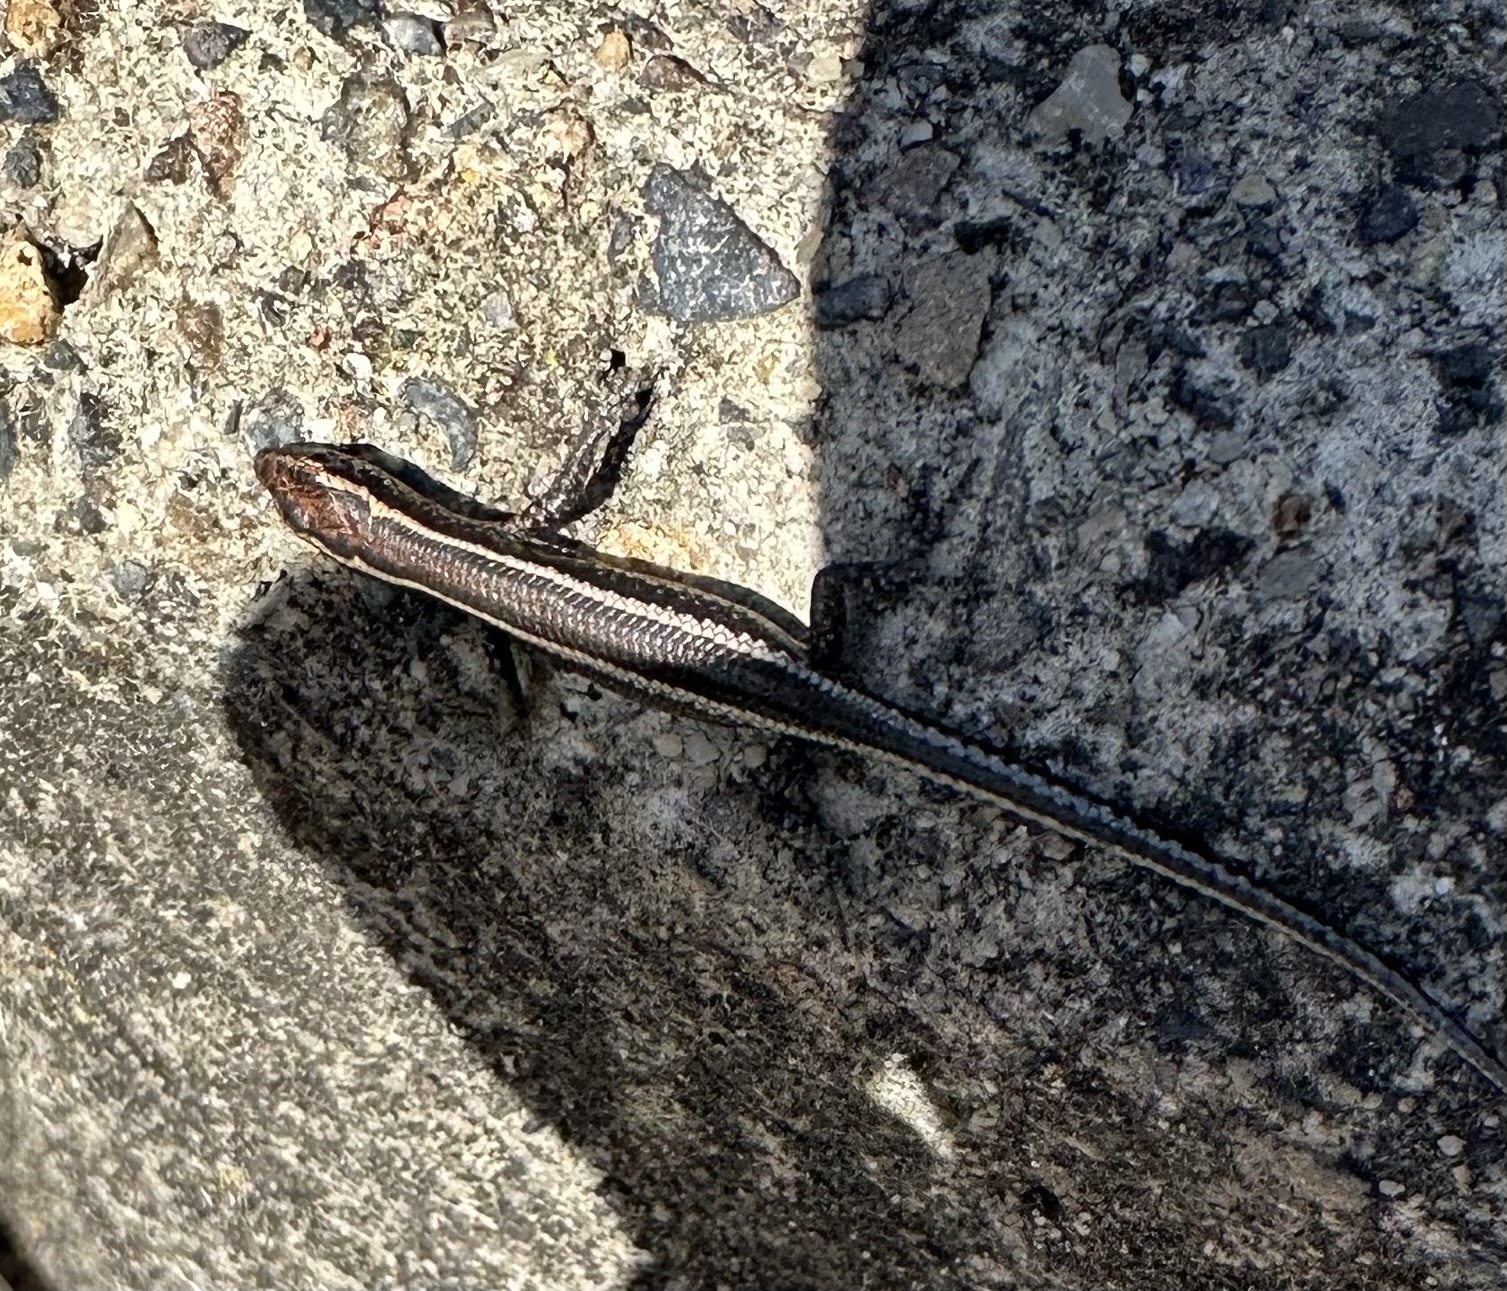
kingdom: Animalia
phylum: Chordata
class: Squamata
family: Scincidae
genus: Cryptoblepharus
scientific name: Cryptoblepharus pulcher
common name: Elegant snake-eyed skink
